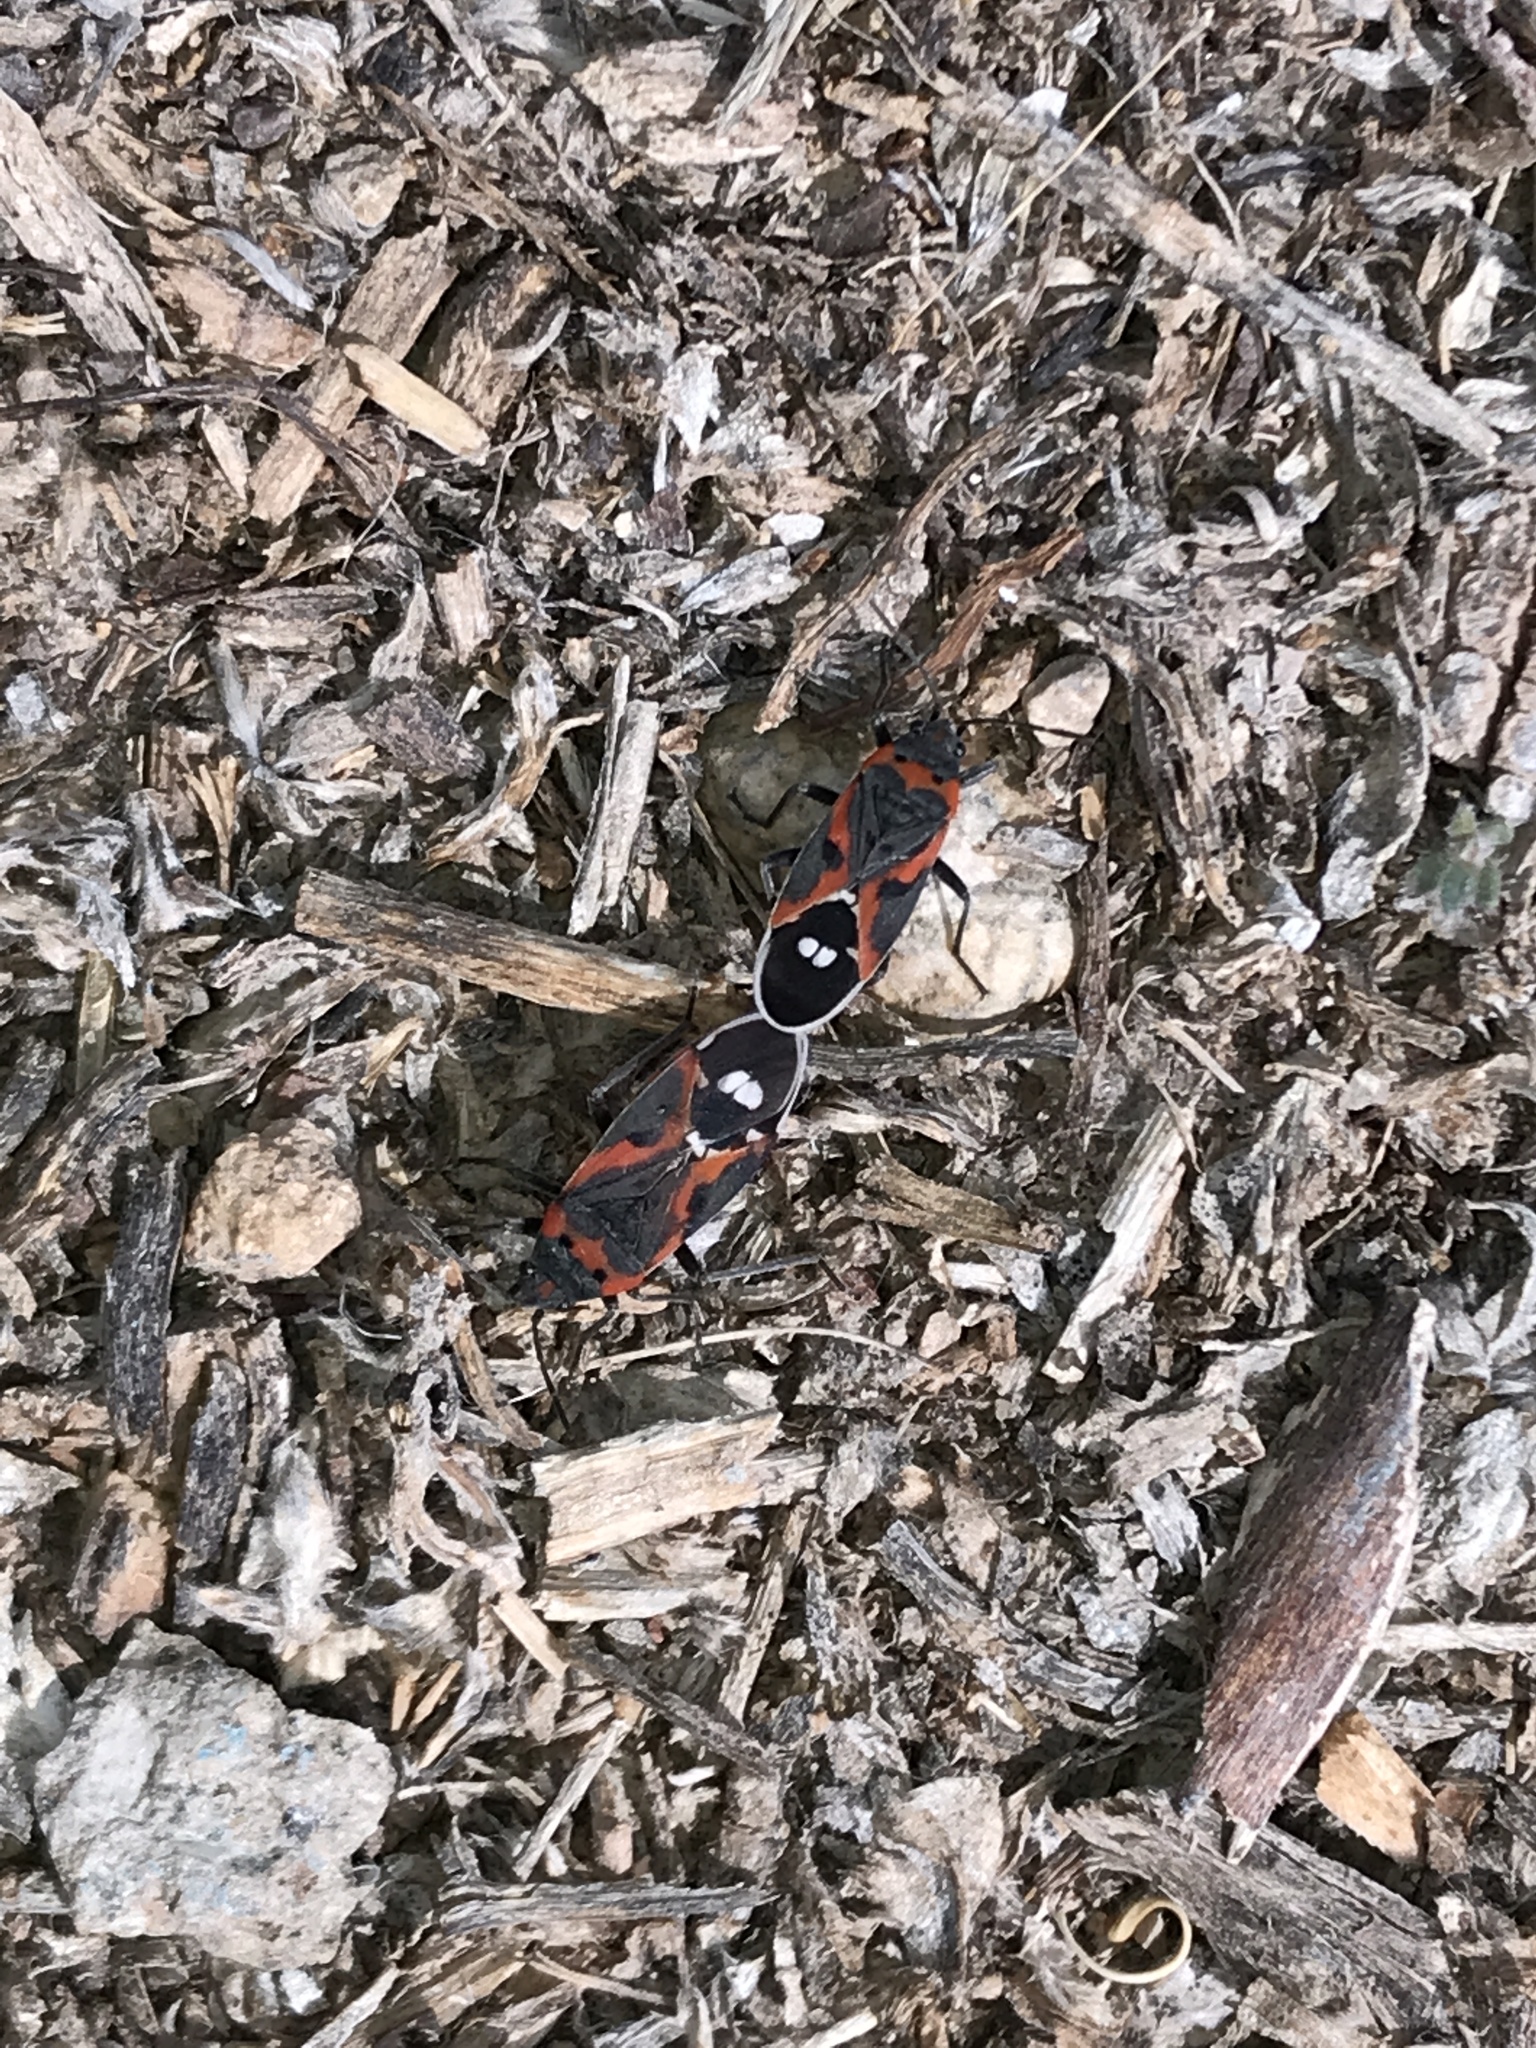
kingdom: Animalia
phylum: Arthropoda
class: Insecta
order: Hemiptera
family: Lygaeidae
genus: Lygaeus
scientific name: Lygaeus kalmii
